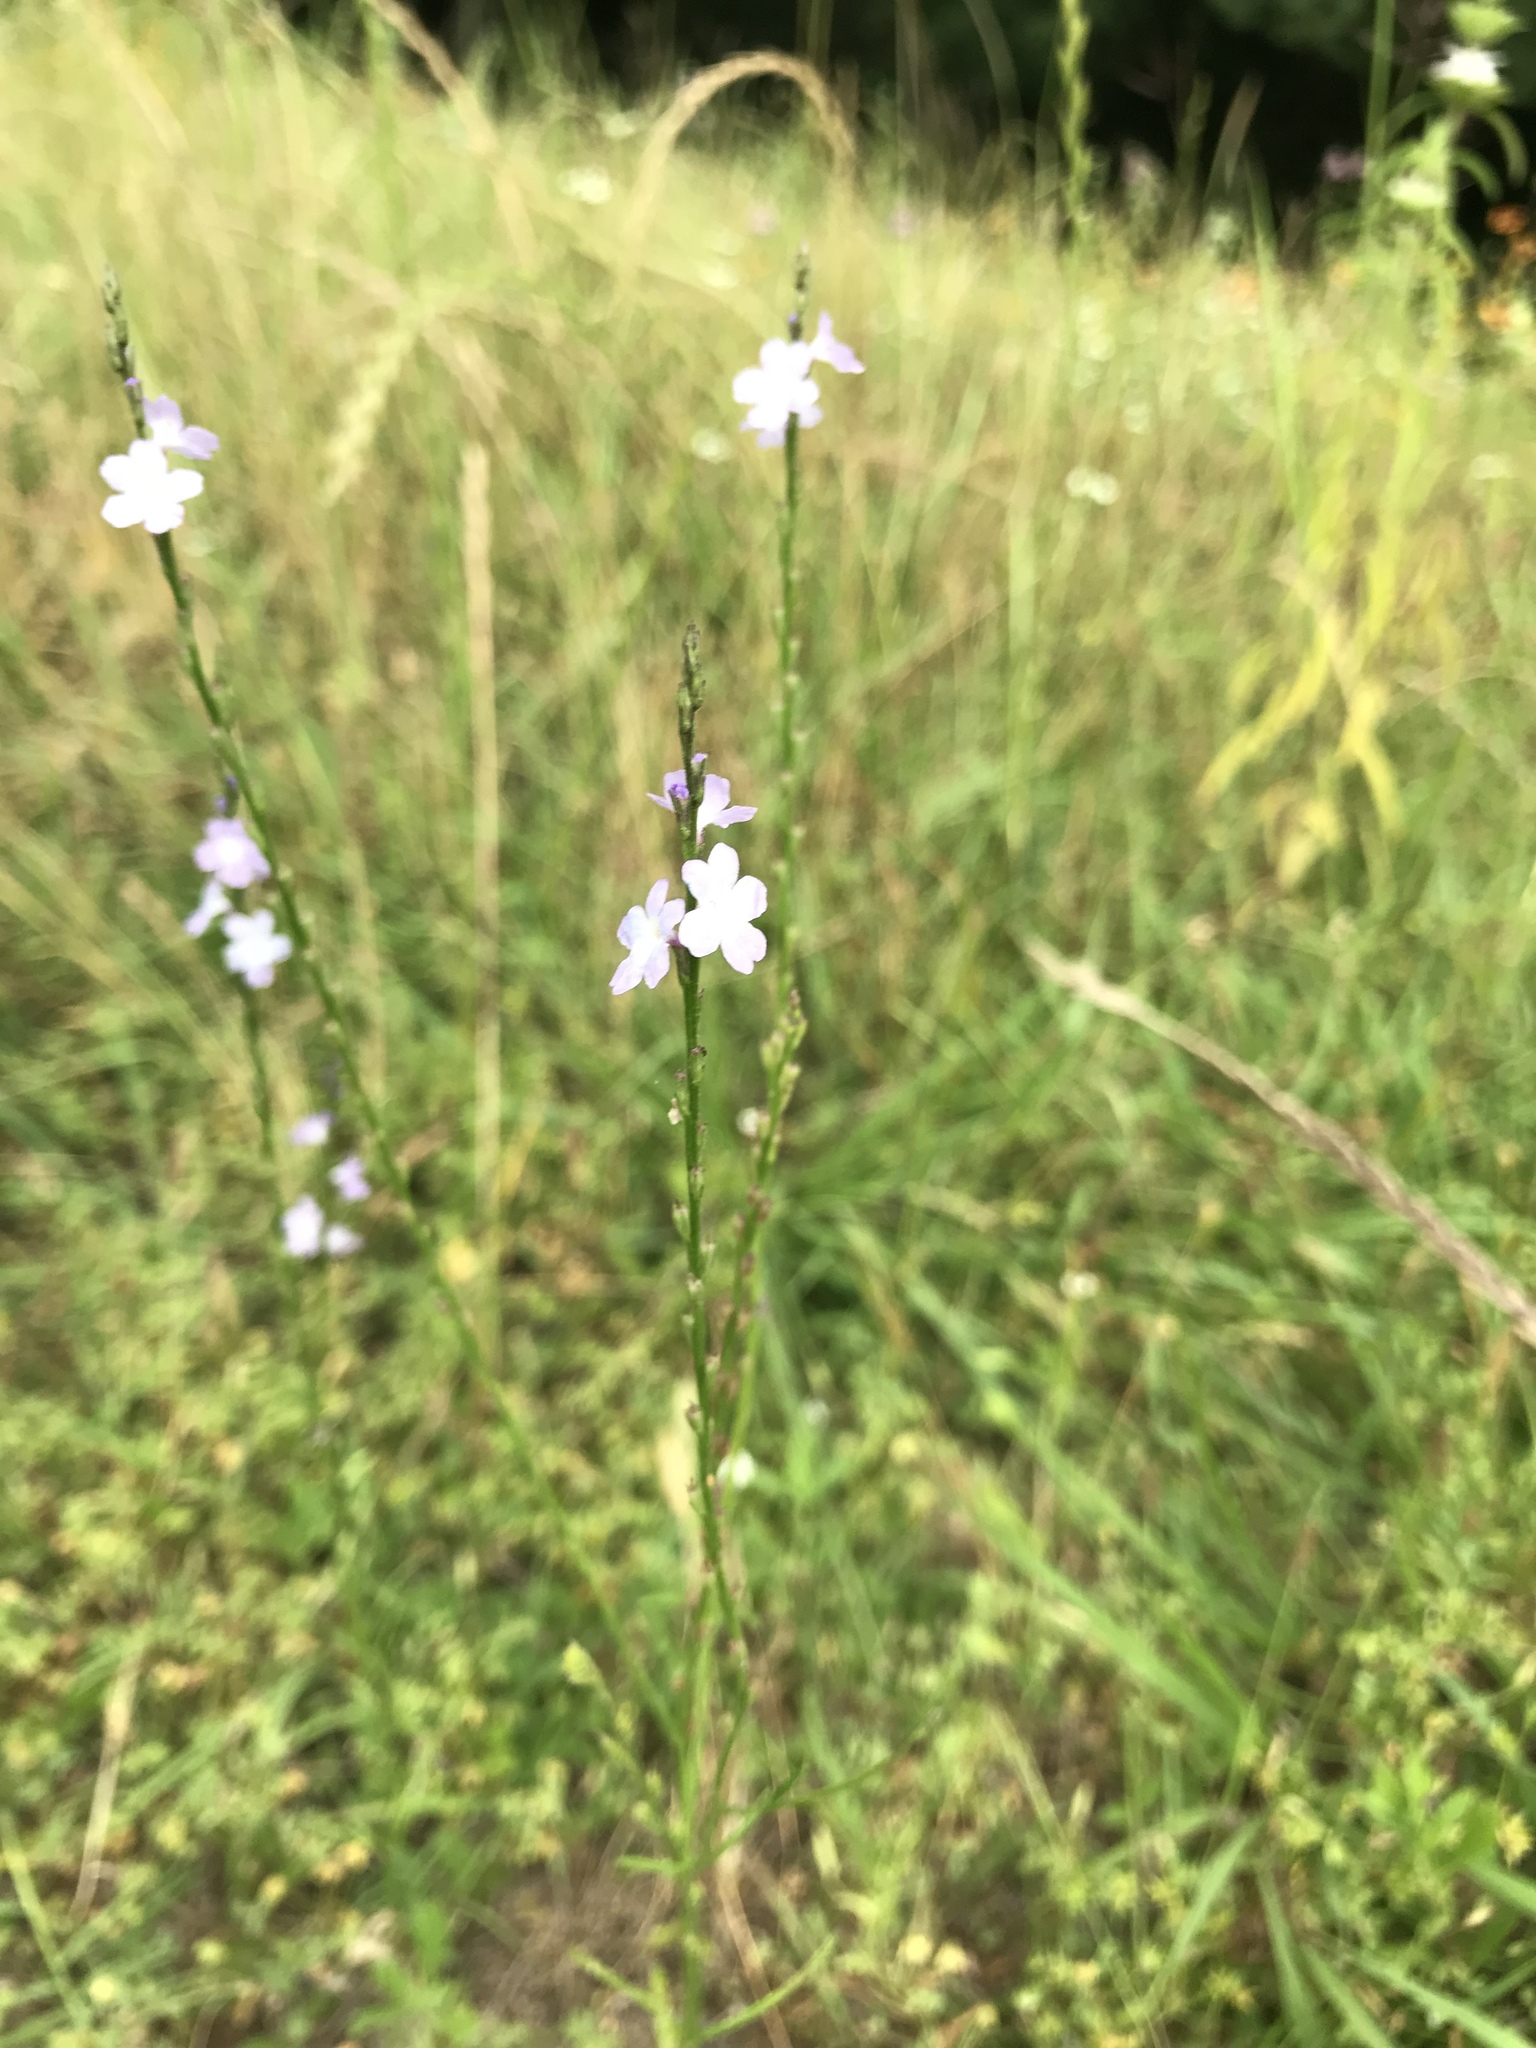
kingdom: Plantae
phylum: Tracheophyta
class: Magnoliopsida
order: Lamiales
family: Verbenaceae
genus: Verbena
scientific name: Verbena halei
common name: Texas vervain
